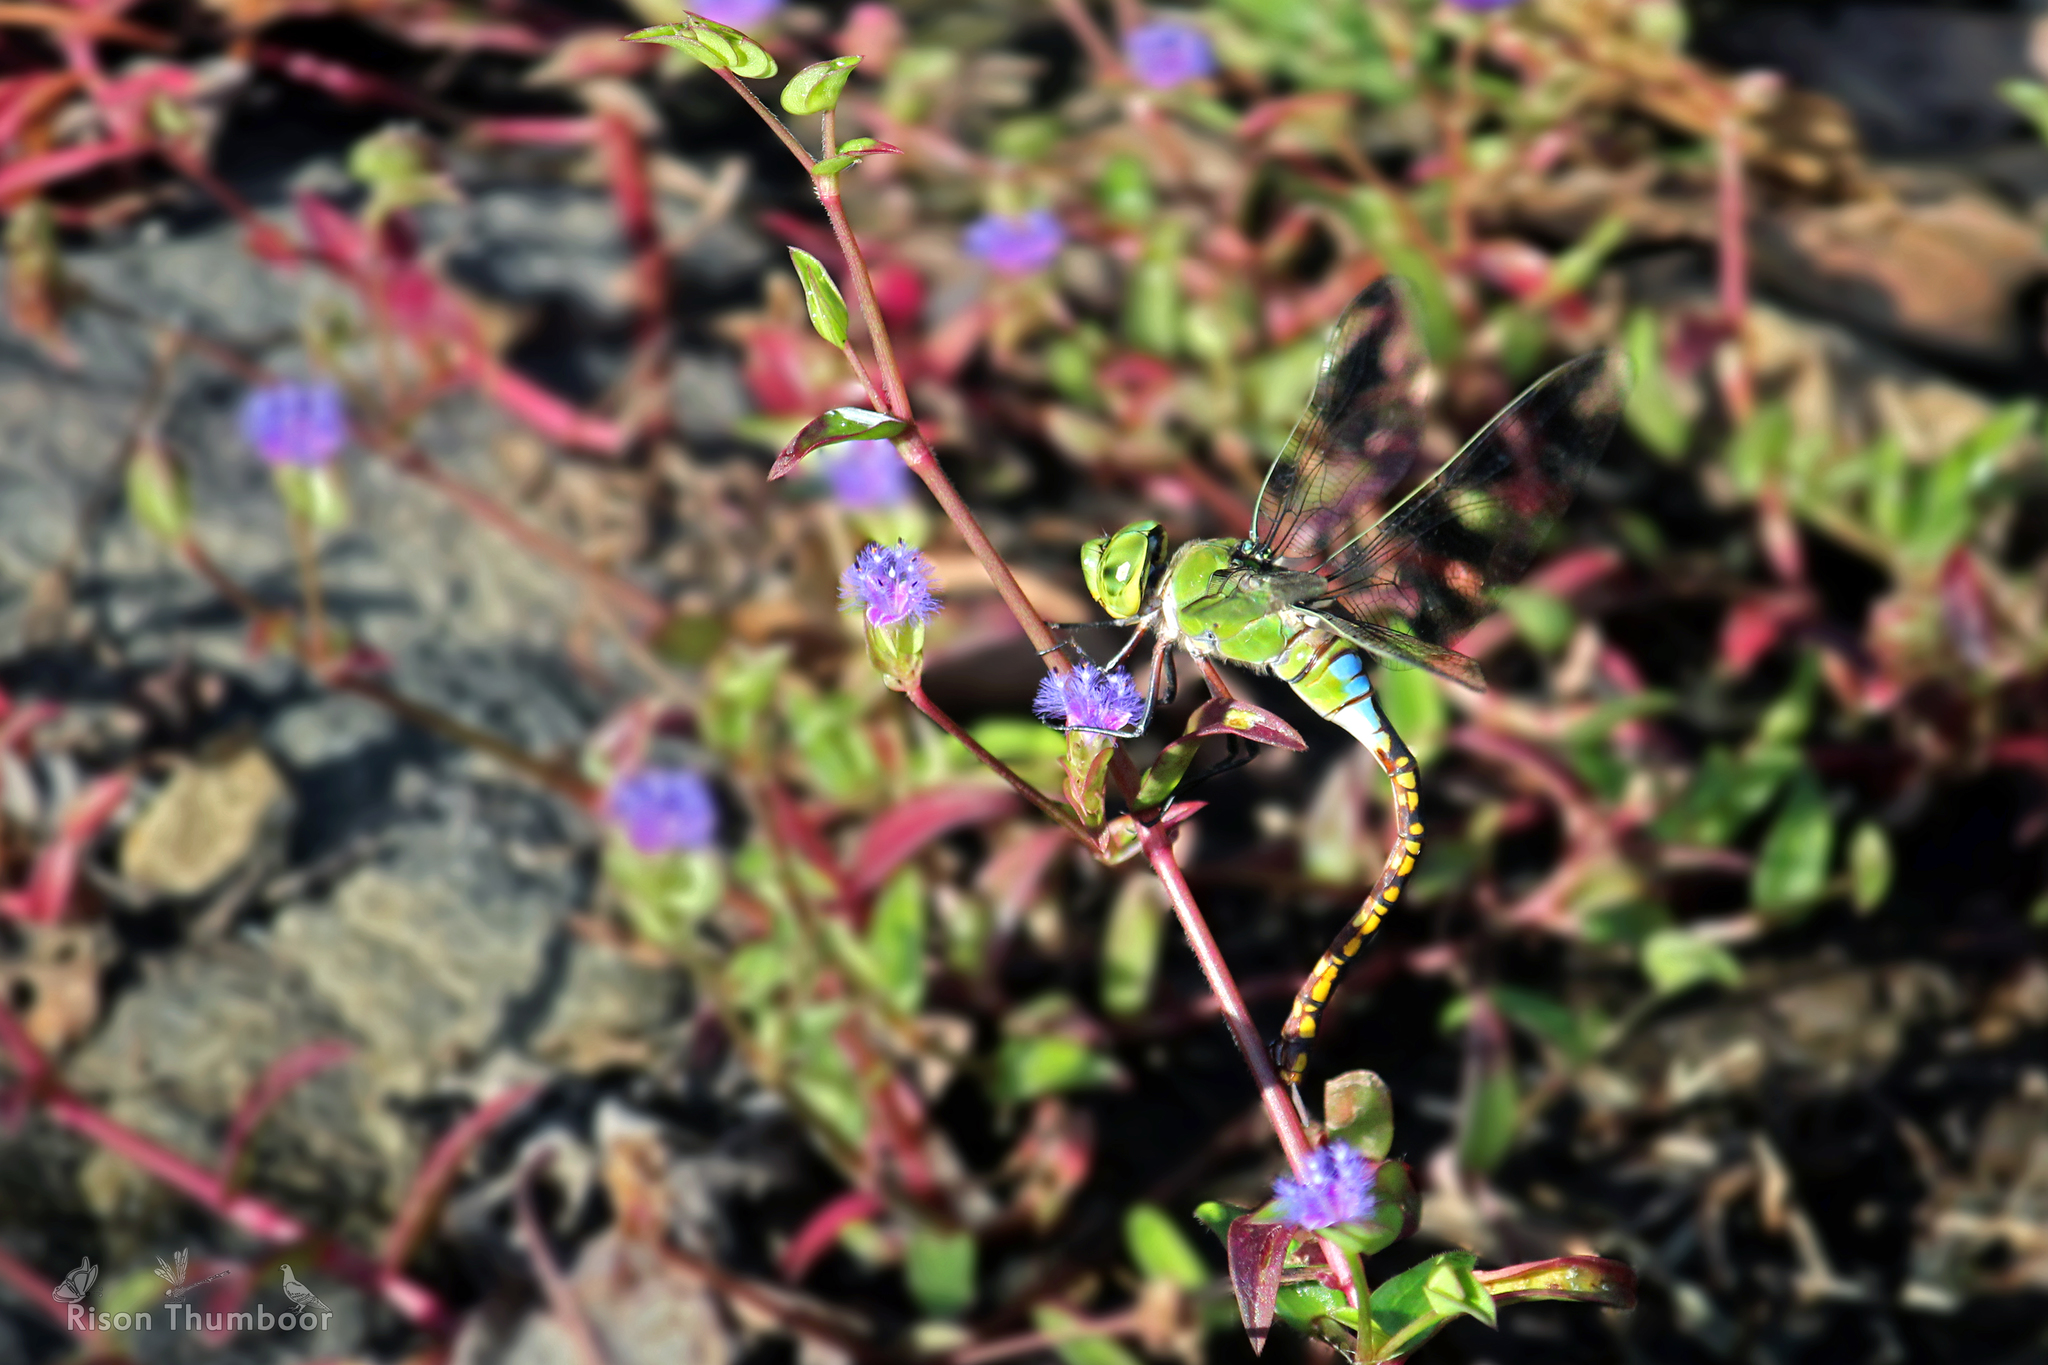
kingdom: Animalia
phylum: Arthropoda
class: Insecta
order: Odonata
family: Aeshnidae
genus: Anax
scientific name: Anax indicus
